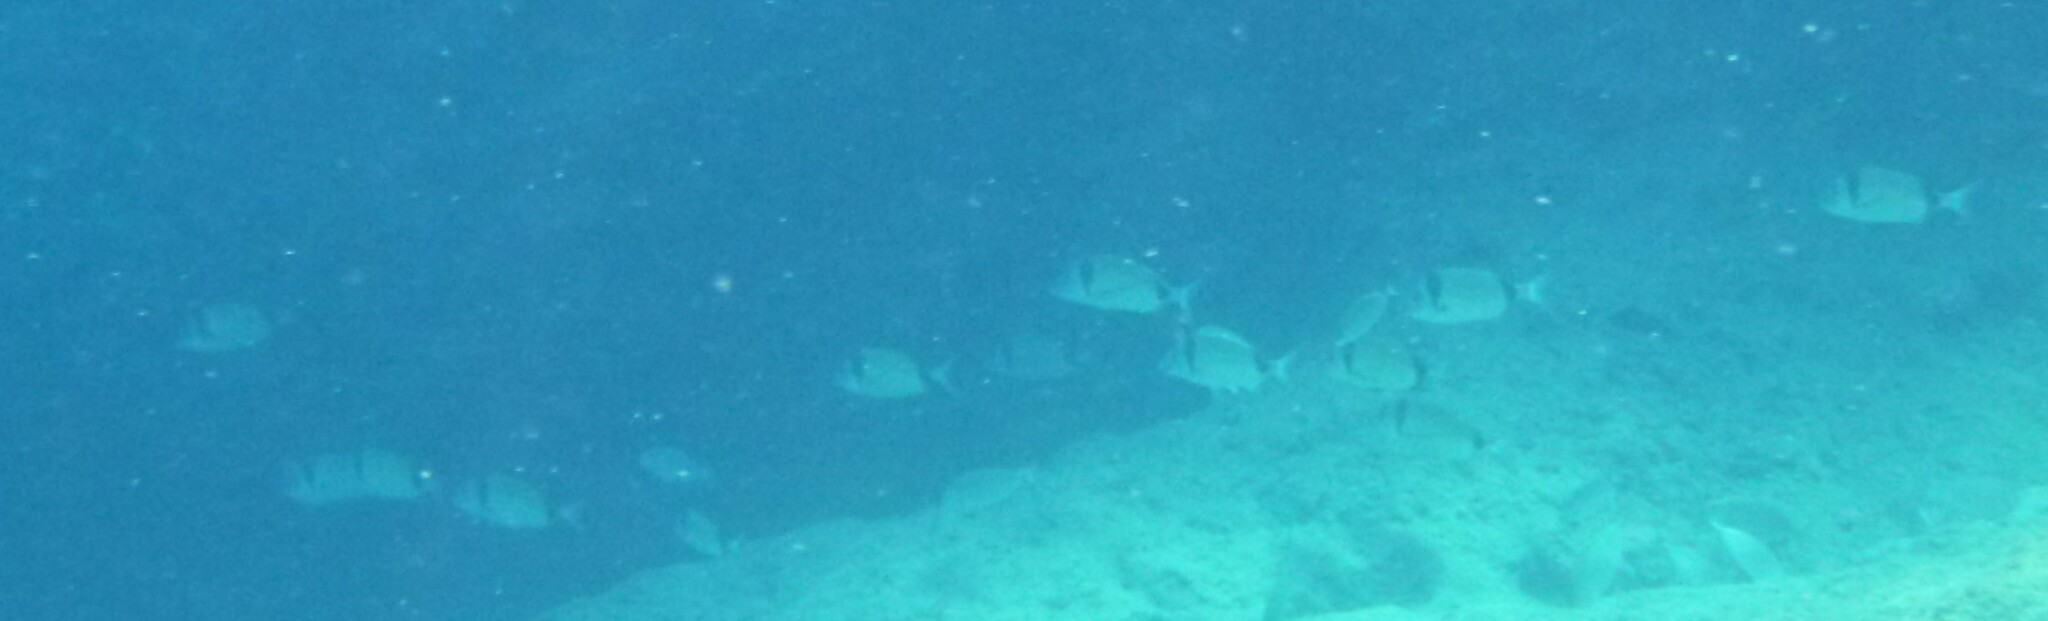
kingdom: Animalia
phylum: Chordata
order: Perciformes
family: Sparidae
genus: Diplodus
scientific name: Diplodus vulgaris
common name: Common two-banded seabream
